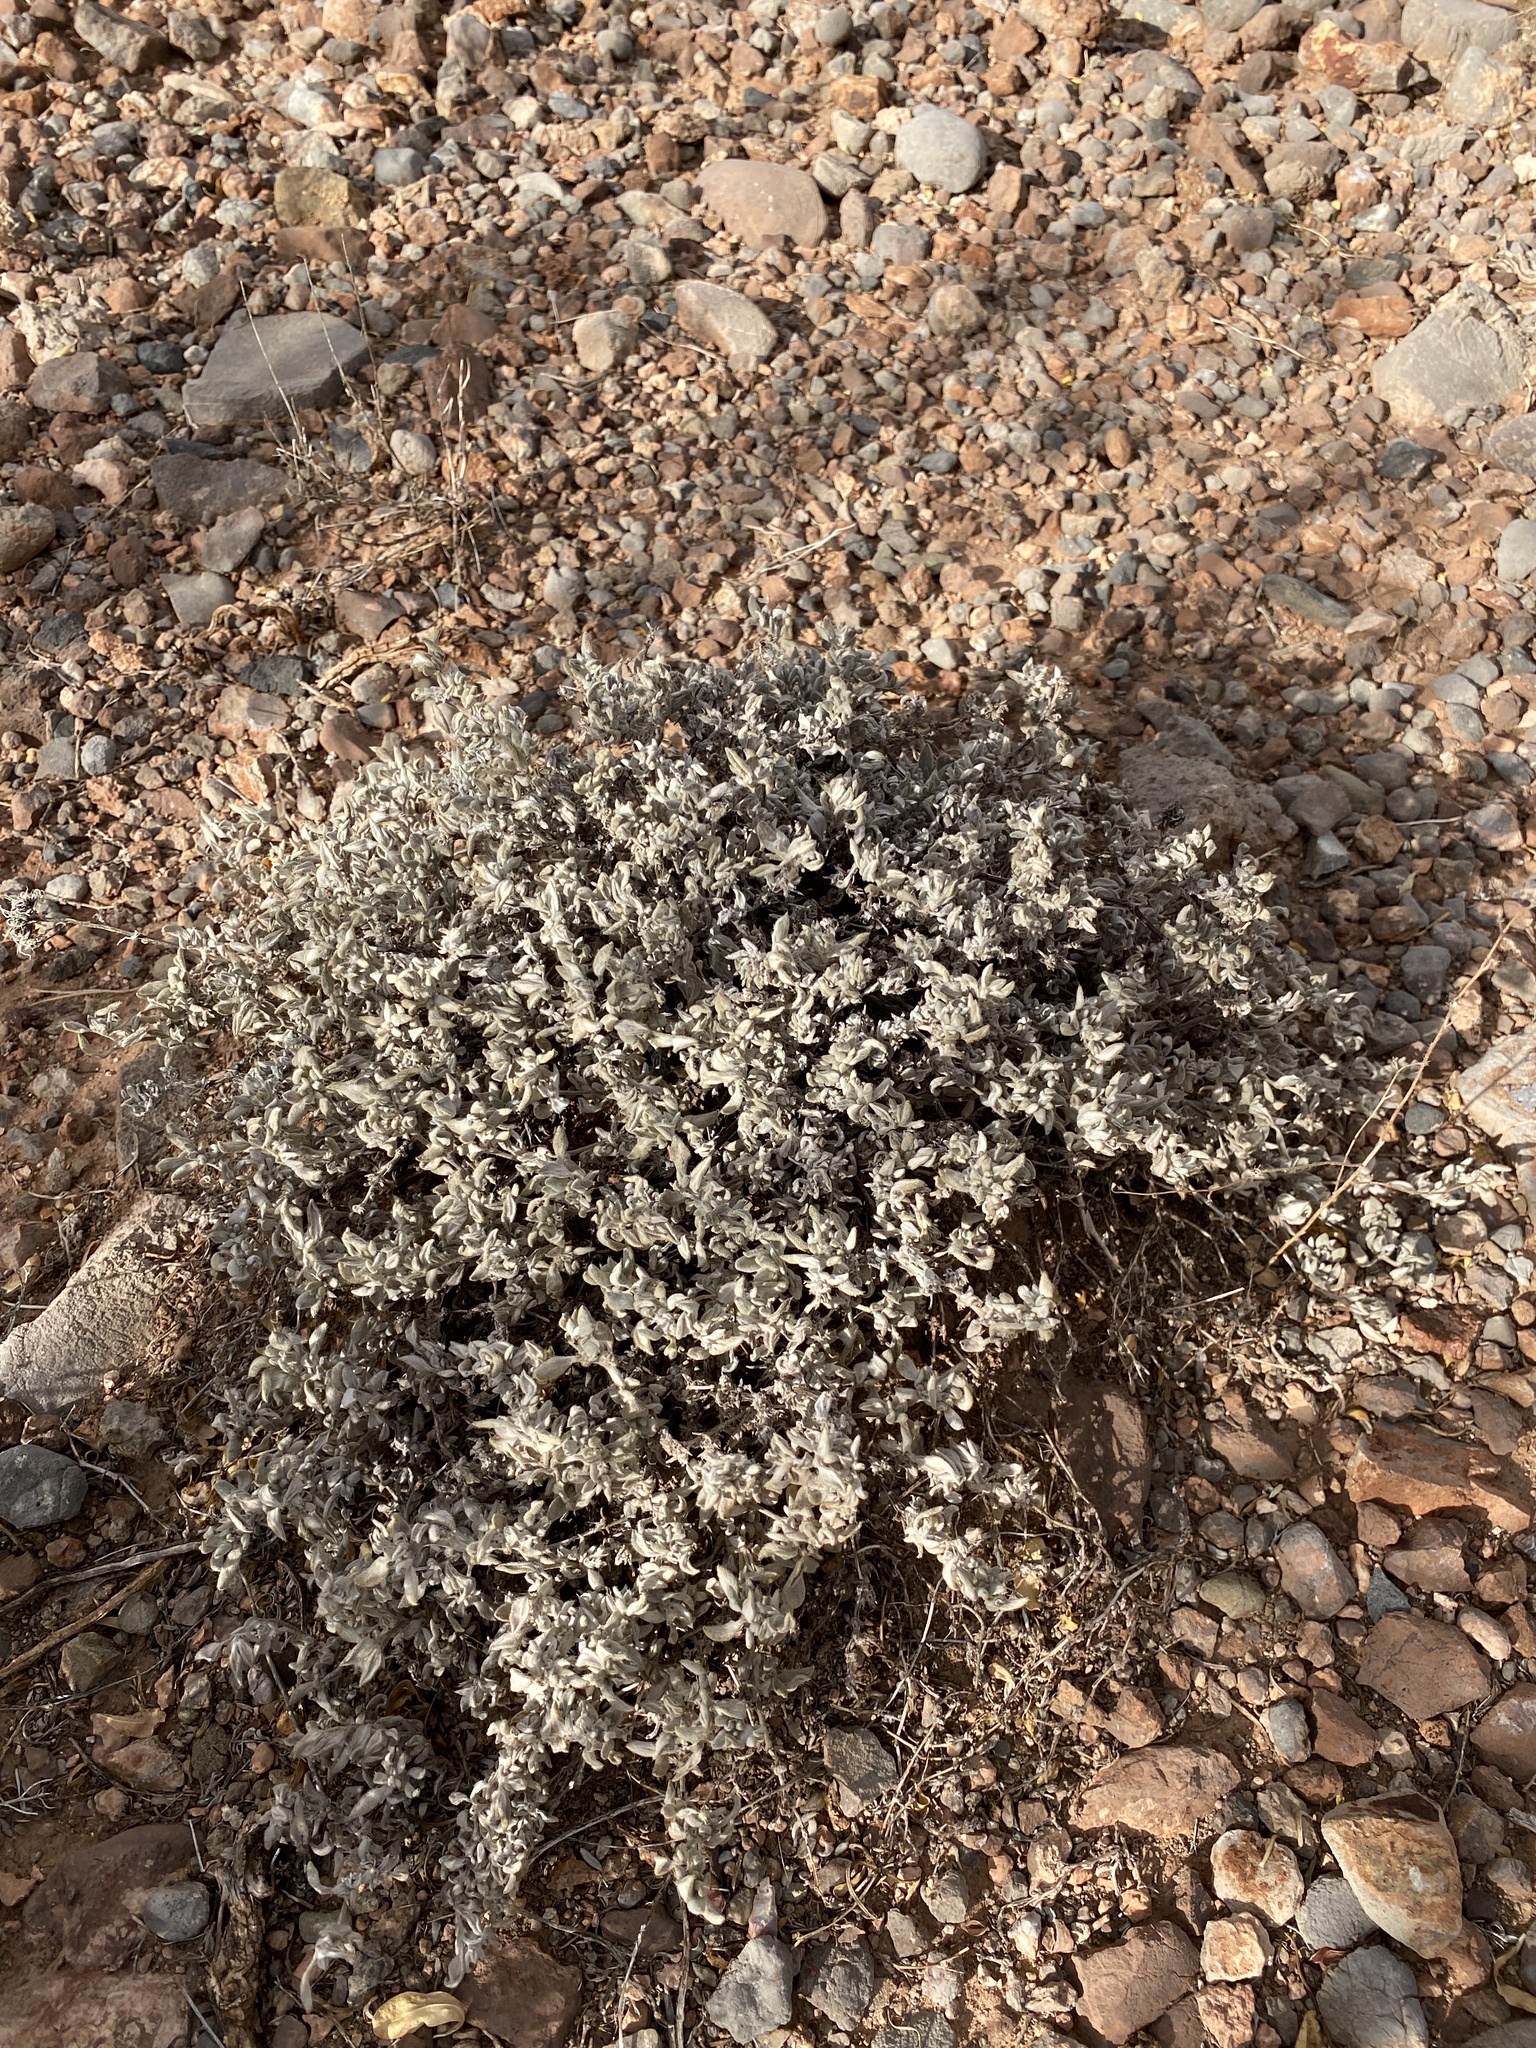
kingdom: Plantae
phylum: Tracheophyta
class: Magnoliopsida
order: Boraginales
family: Ehretiaceae
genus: Tiquilia
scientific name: Tiquilia canescens
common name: Hairy tiquilia
